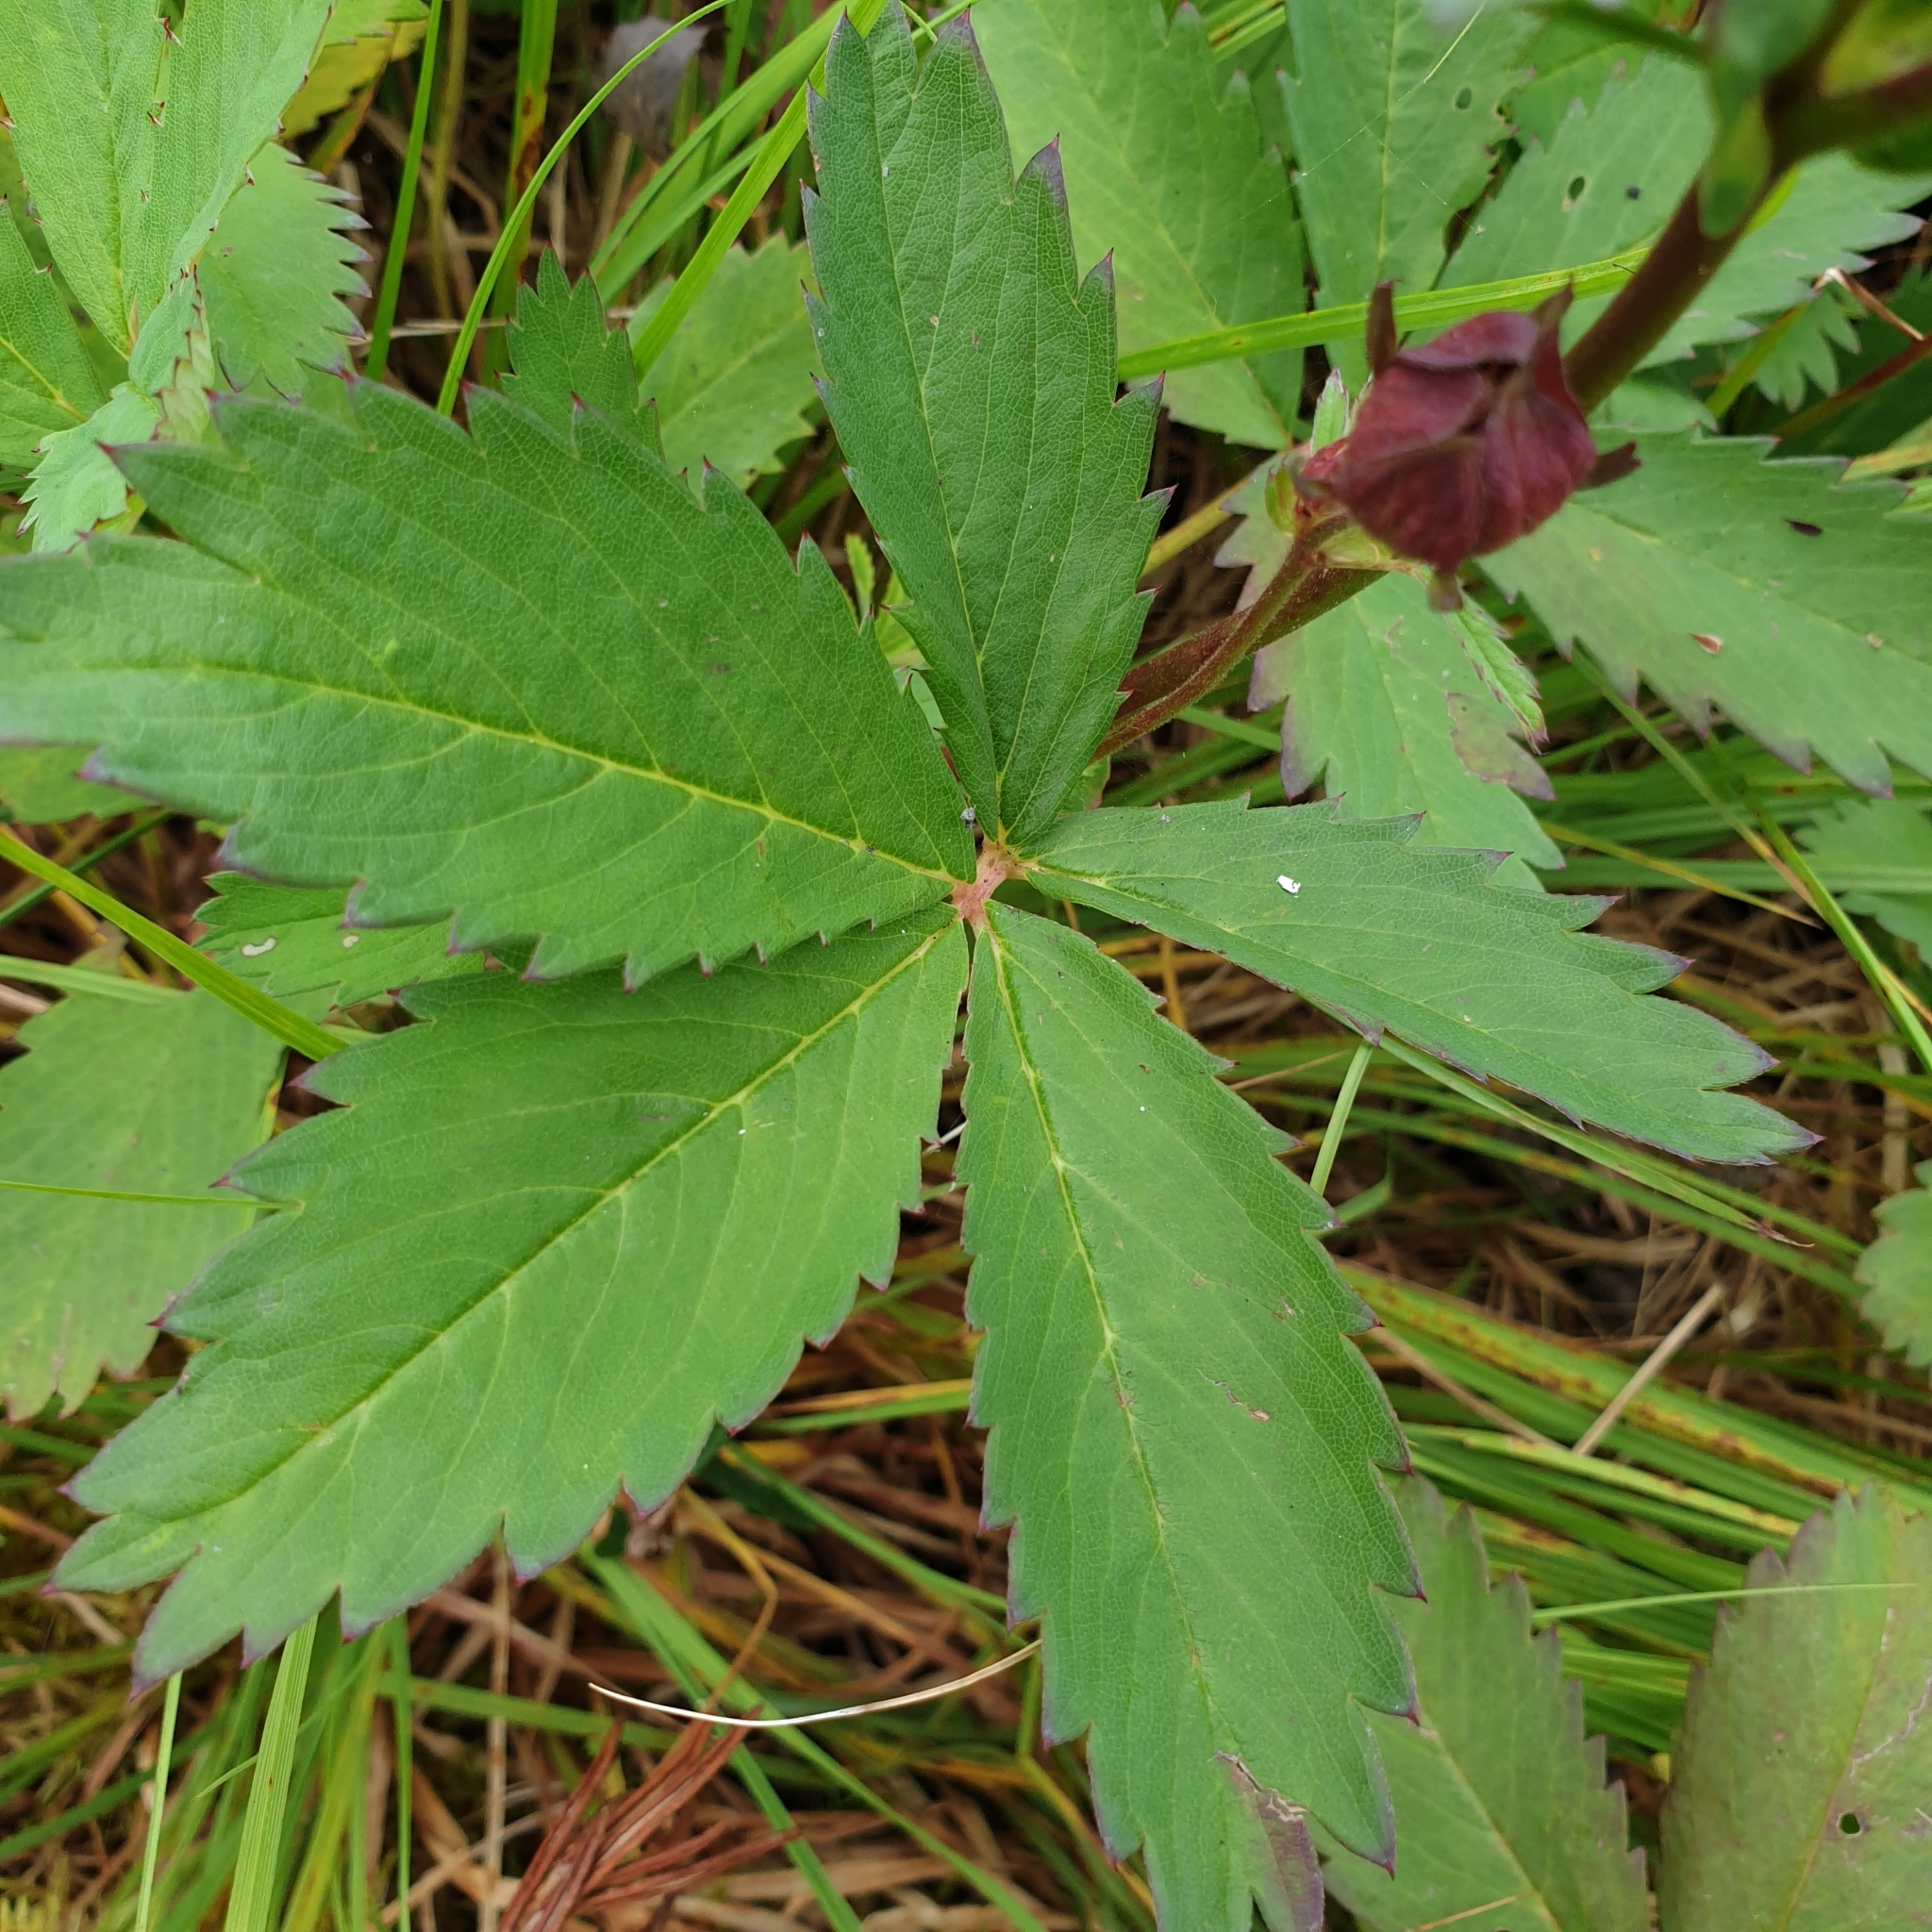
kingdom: Plantae
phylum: Tracheophyta
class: Magnoliopsida
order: Rosales
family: Rosaceae
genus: Comarum
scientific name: Comarum palustre
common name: Marsh cinquefoil
